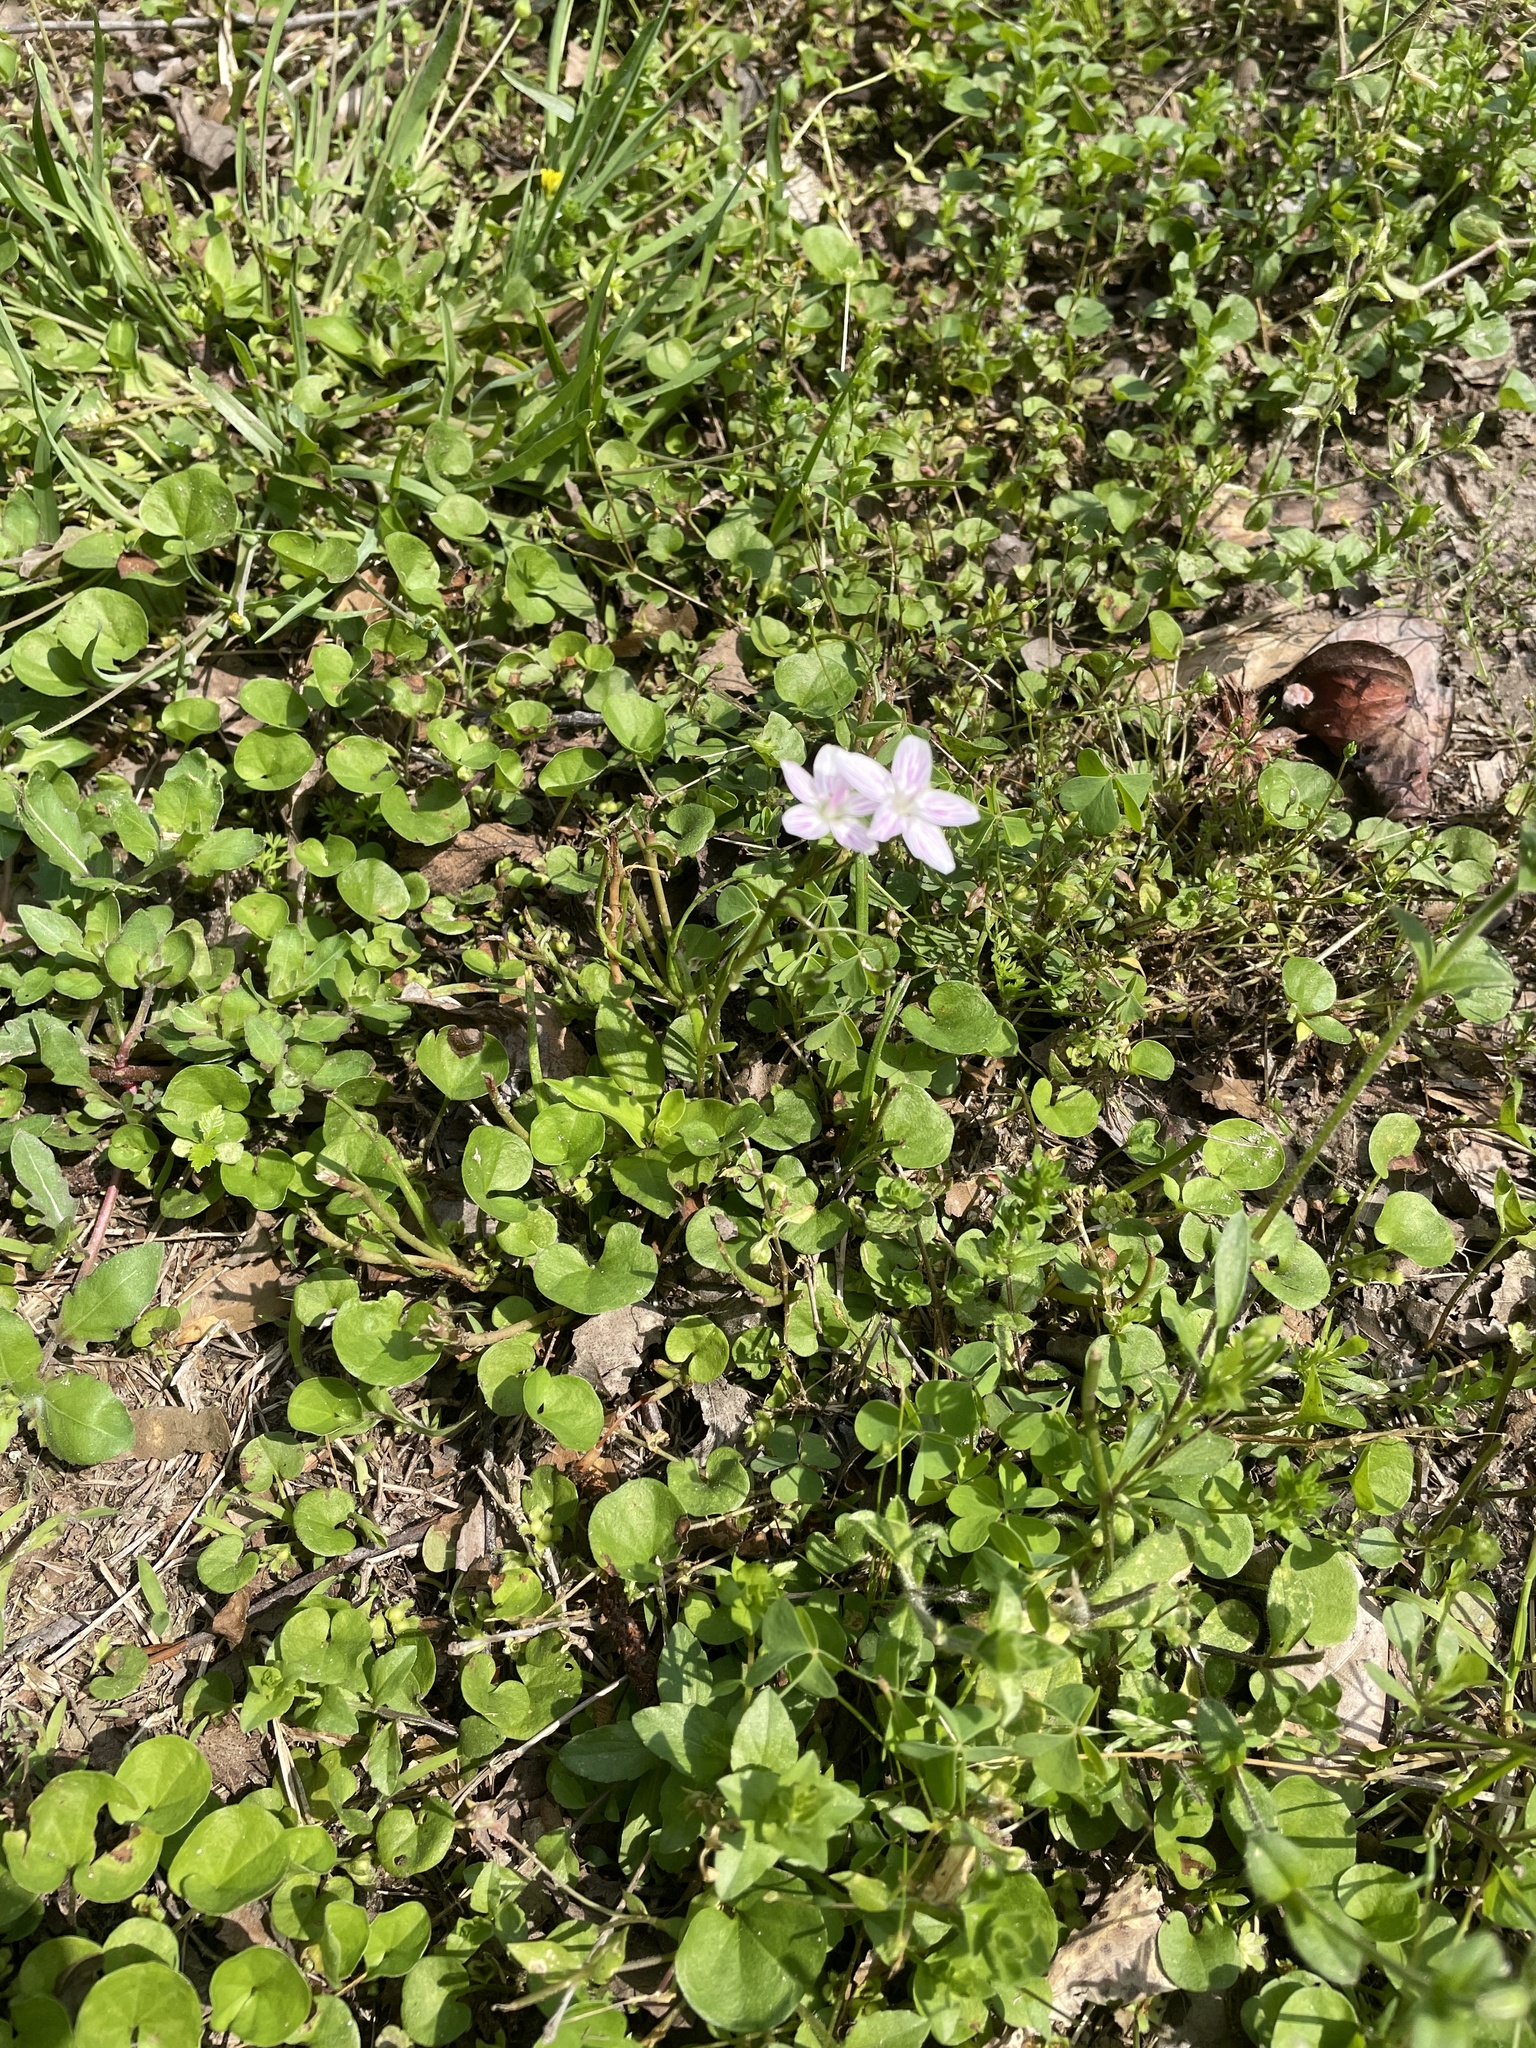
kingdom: Plantae
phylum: Tracheophyta
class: Magnoliopsida
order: Caryophyllales
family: Montiaceae
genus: Claytonia
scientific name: Claytonia virginica
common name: Virginia springbeauty
